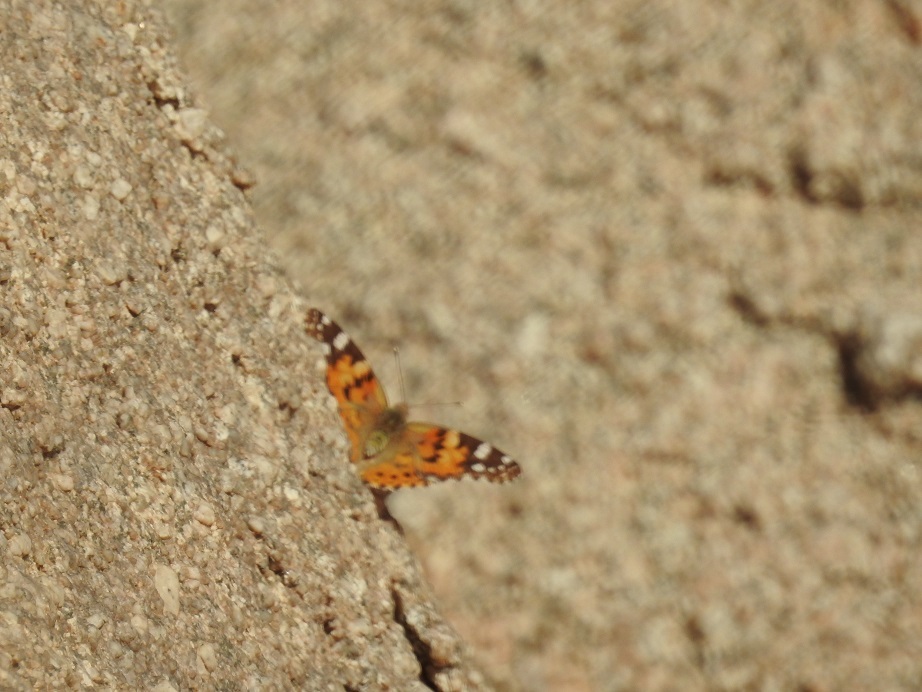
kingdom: Animalia
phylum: Arthropoda
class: Insecta
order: Lepidoptera
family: Nymphalidae
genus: Vanessa
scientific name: Vanessa cardui
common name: Painted lady
